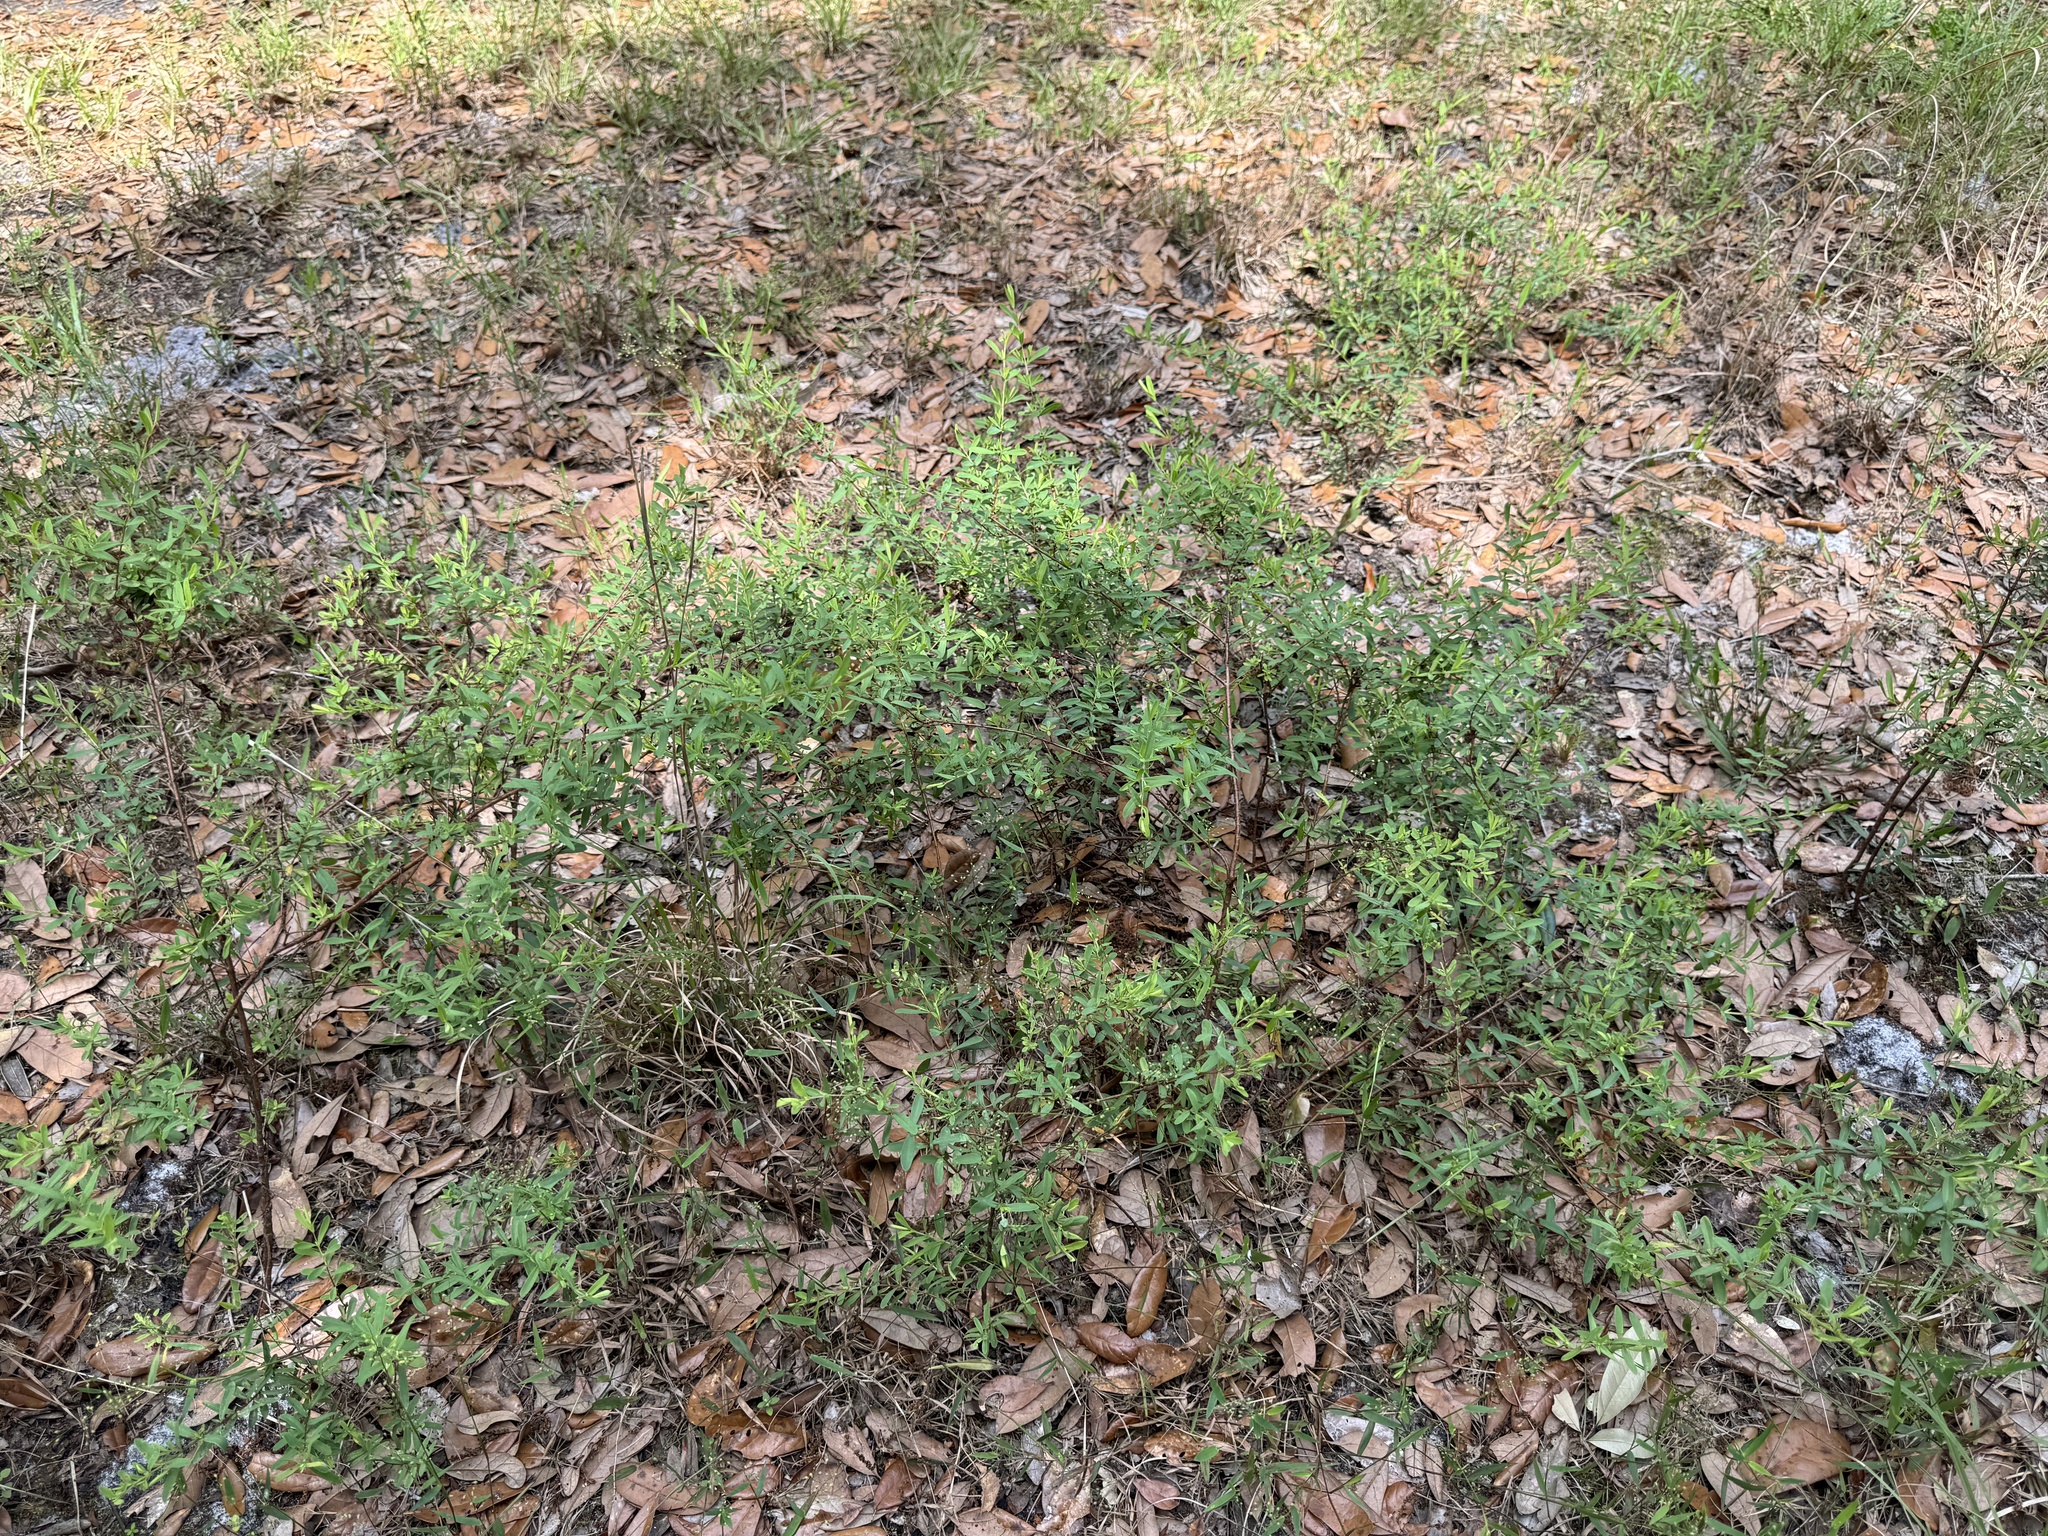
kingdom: Plantae
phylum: Tracheophyta
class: Magnoliopsida
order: Malpighiales
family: Hypericaceae
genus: Hypericum
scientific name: Hypericum hypericoides
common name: St. andrew's cross
